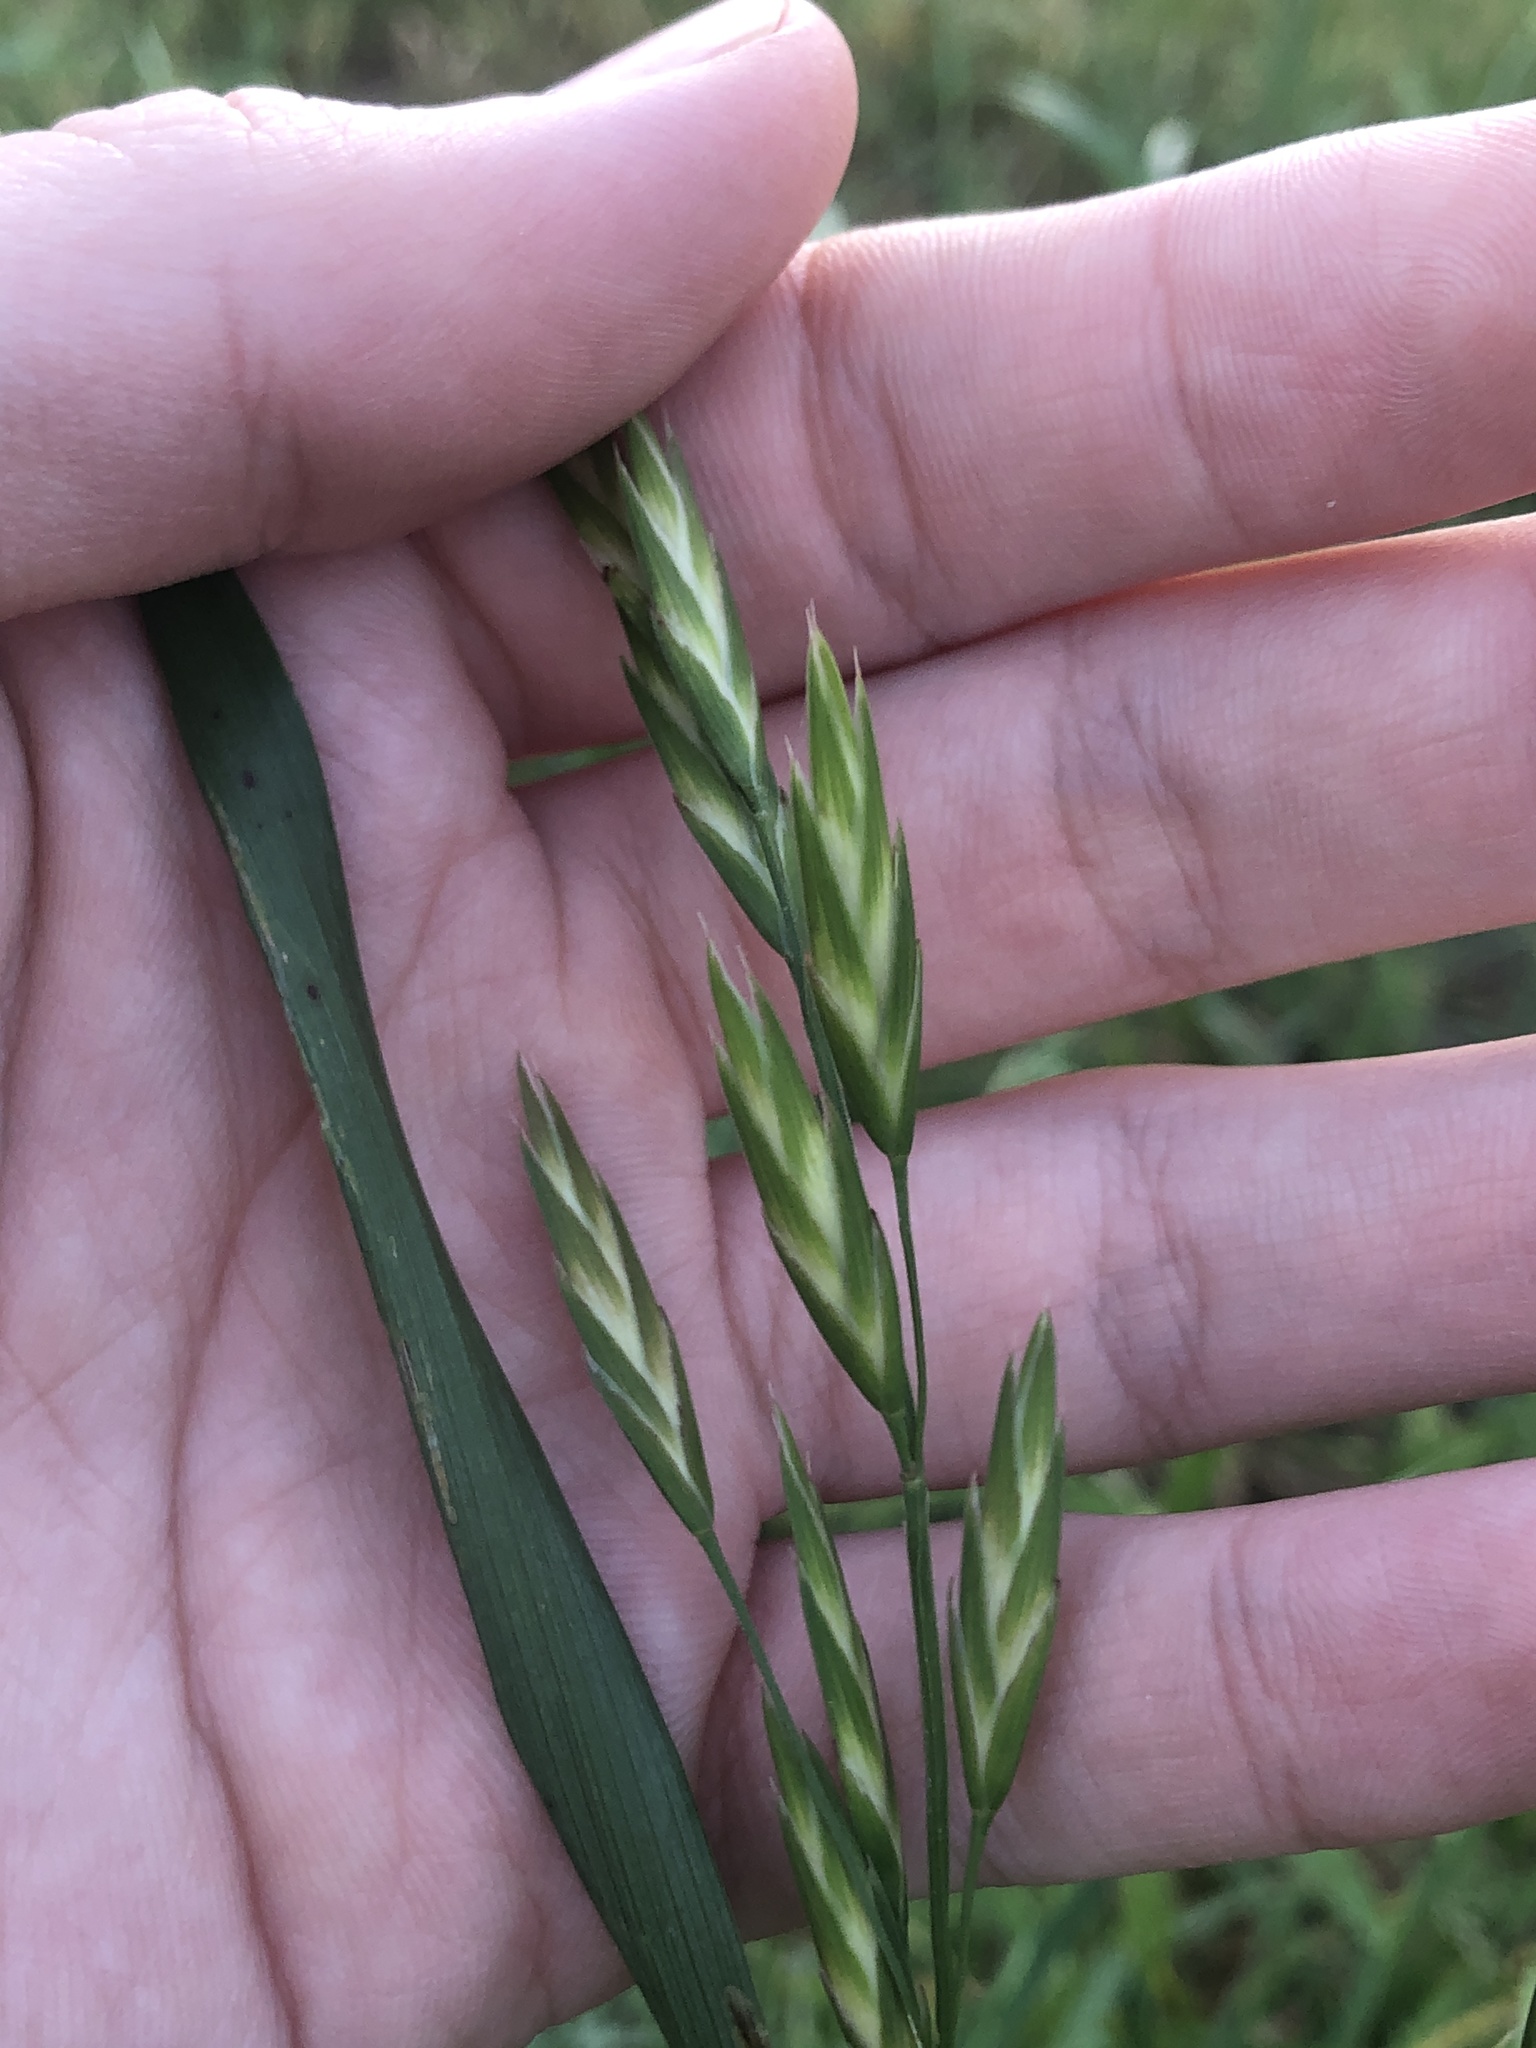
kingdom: Plantae
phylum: Tracheophyta
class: Liliopsida
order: Poales
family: Poaceae
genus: Bromus
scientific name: Bromus catharticus
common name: Rescuegrass
